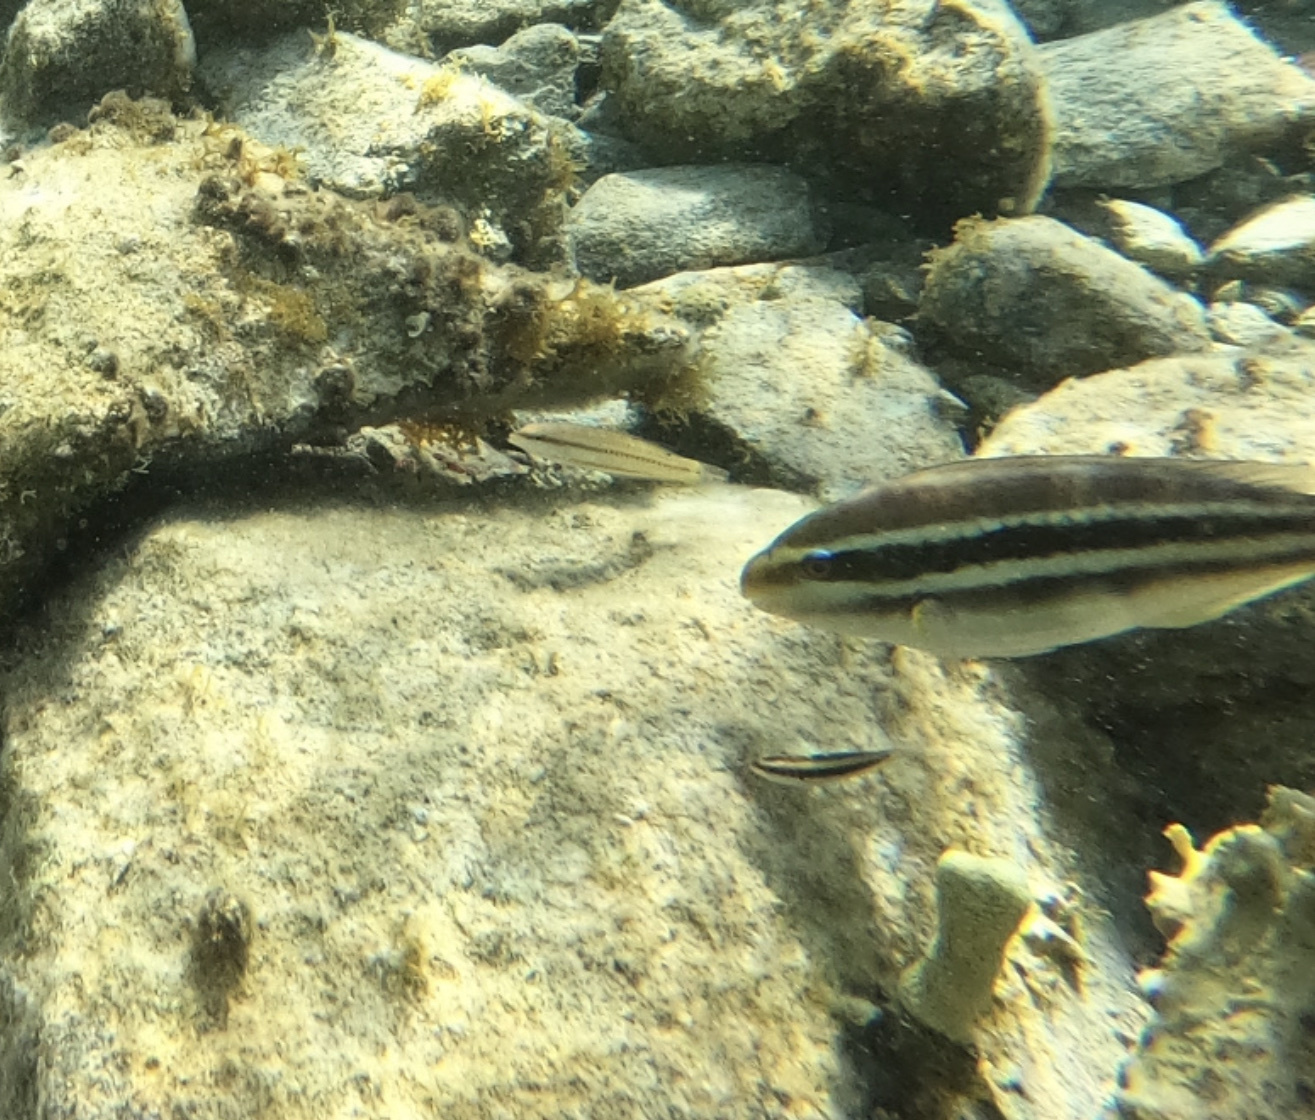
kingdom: Animalia
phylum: Chordata
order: Perciformes
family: Labridae
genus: Halichoeres
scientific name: Halichoeres bivittatus
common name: Slippery dick
